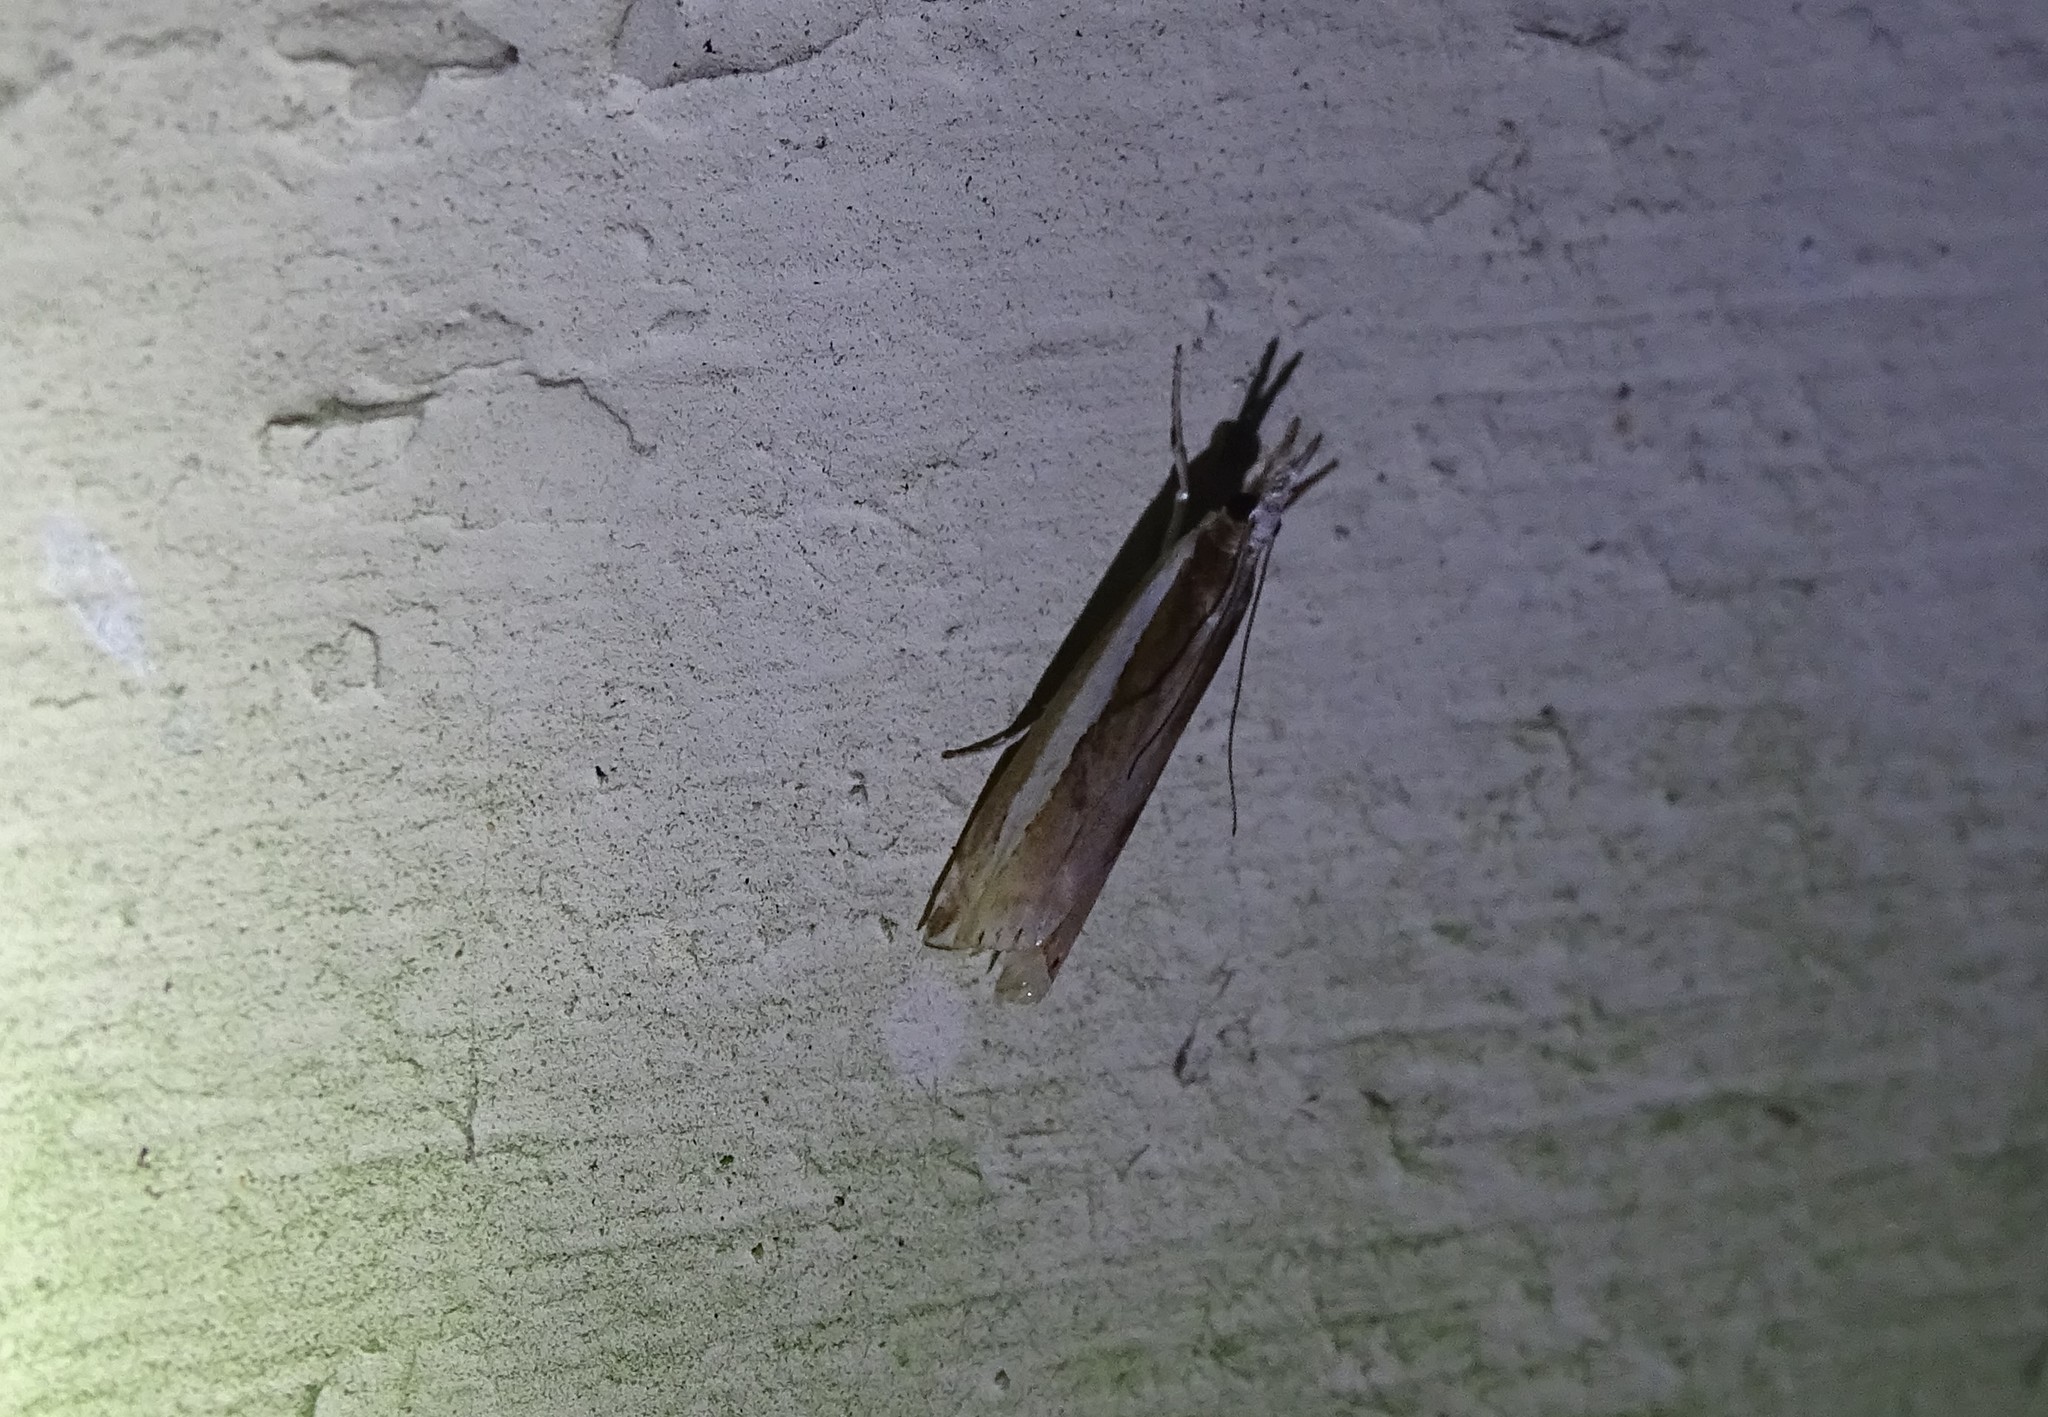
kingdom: Animalia
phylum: Arthropoda
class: Insecta
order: Lepidoptera
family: Crambidae
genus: Crambus
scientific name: Crambus praefectellus
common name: Common grass-veneer
